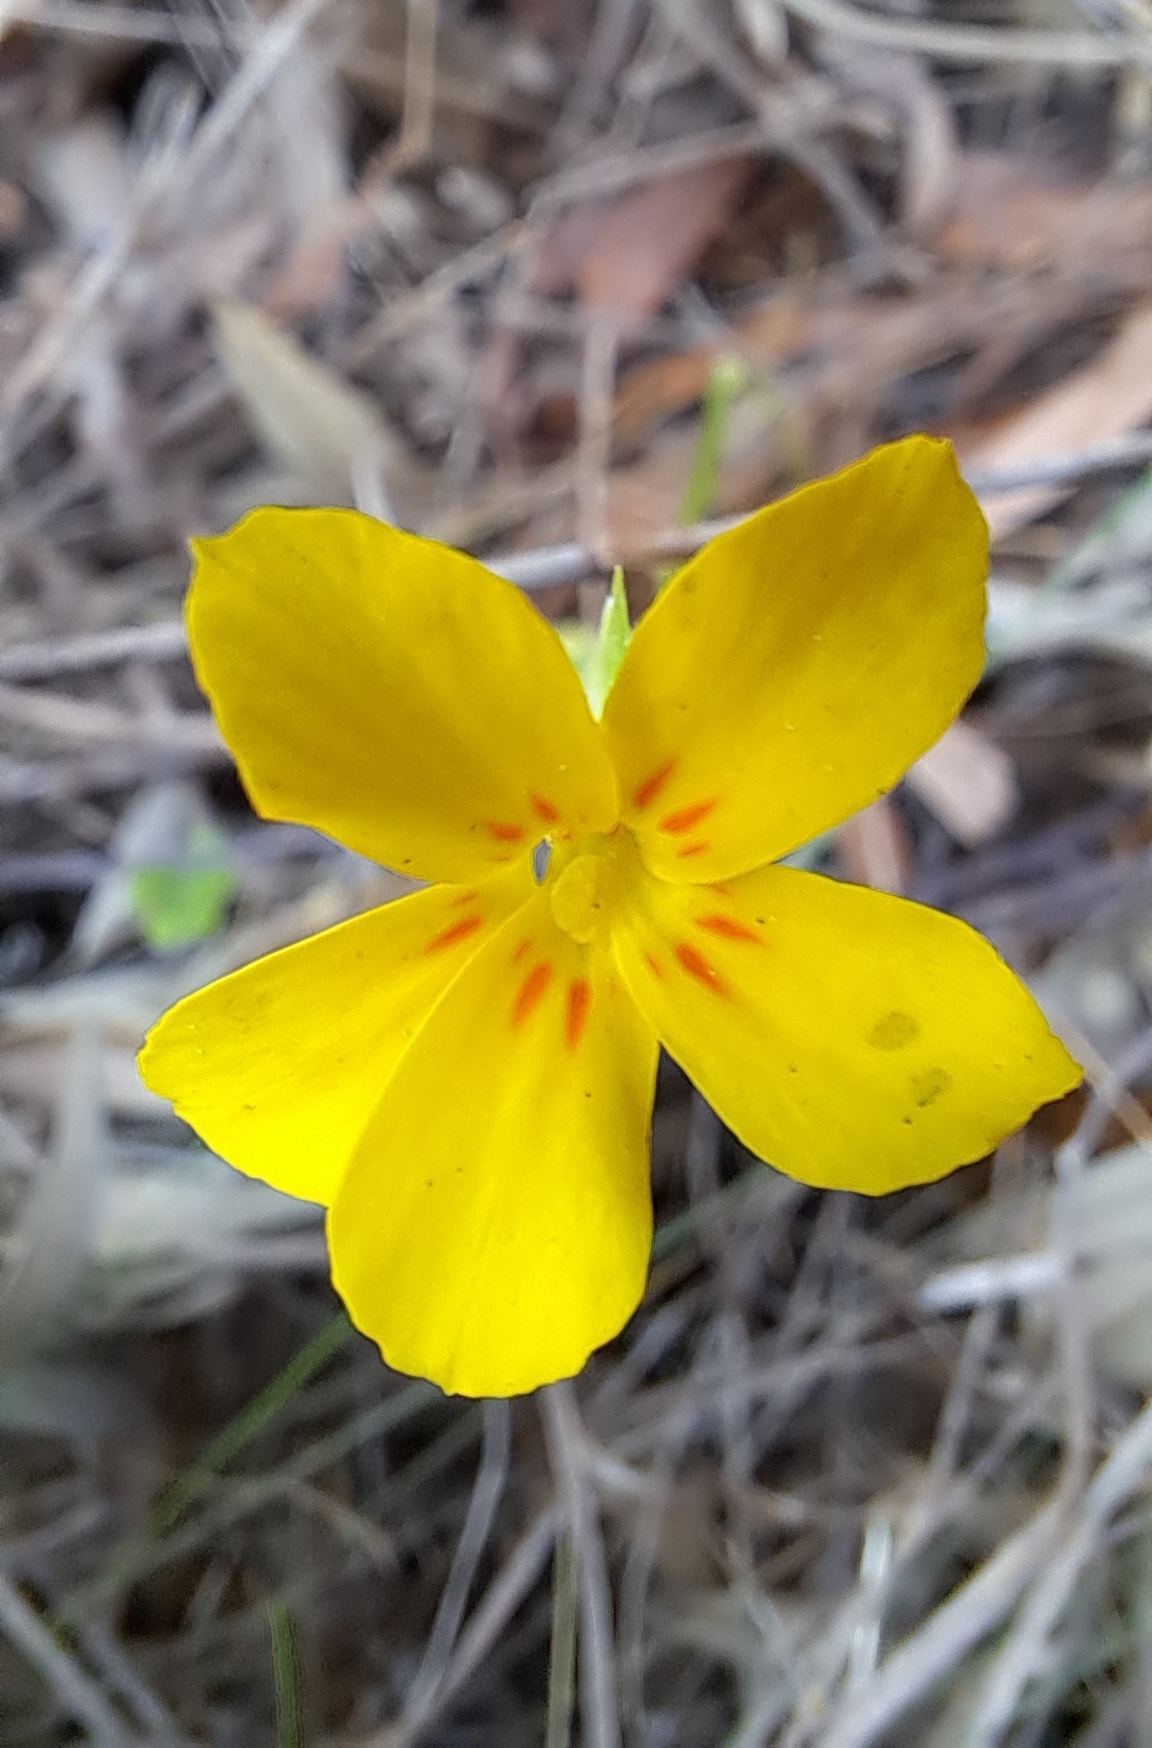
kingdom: Plantae
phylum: Tracheophyta
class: Magnoliopsida
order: Gentianales
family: Gentianaceae
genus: Sebaea
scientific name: Sebaea exacoides
